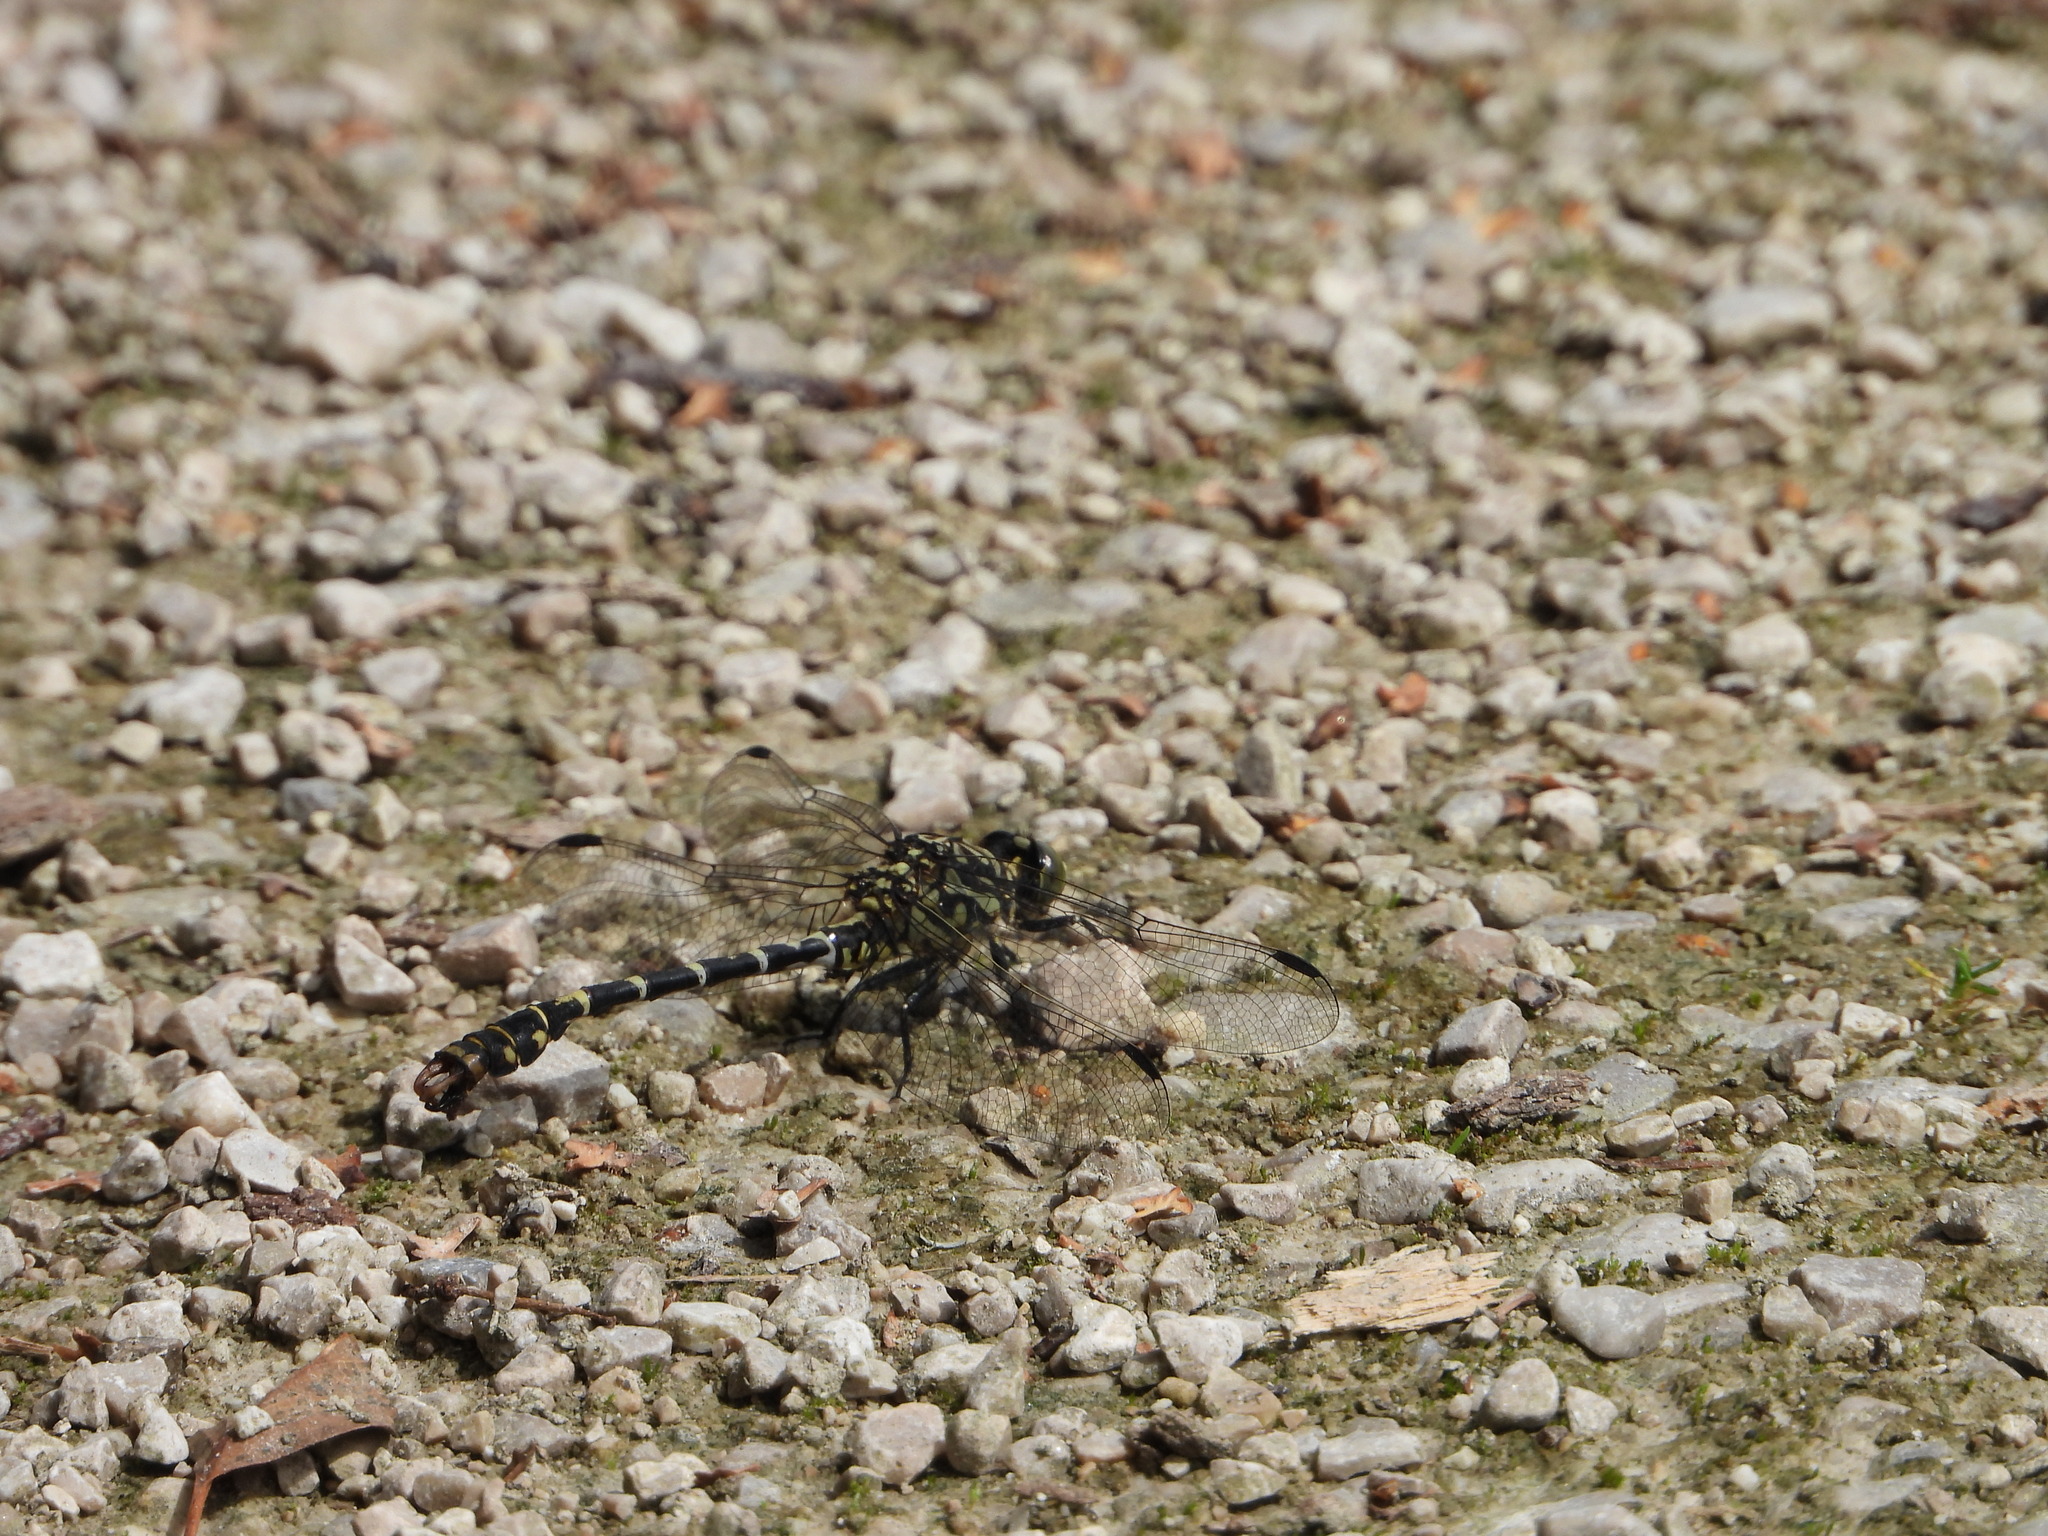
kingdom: Animalia
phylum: Arthropoda
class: Insecta
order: Odonata
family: Gomphidae
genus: Onychogomphus
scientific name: Onychogomphus forcipatus
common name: Small pincertail
